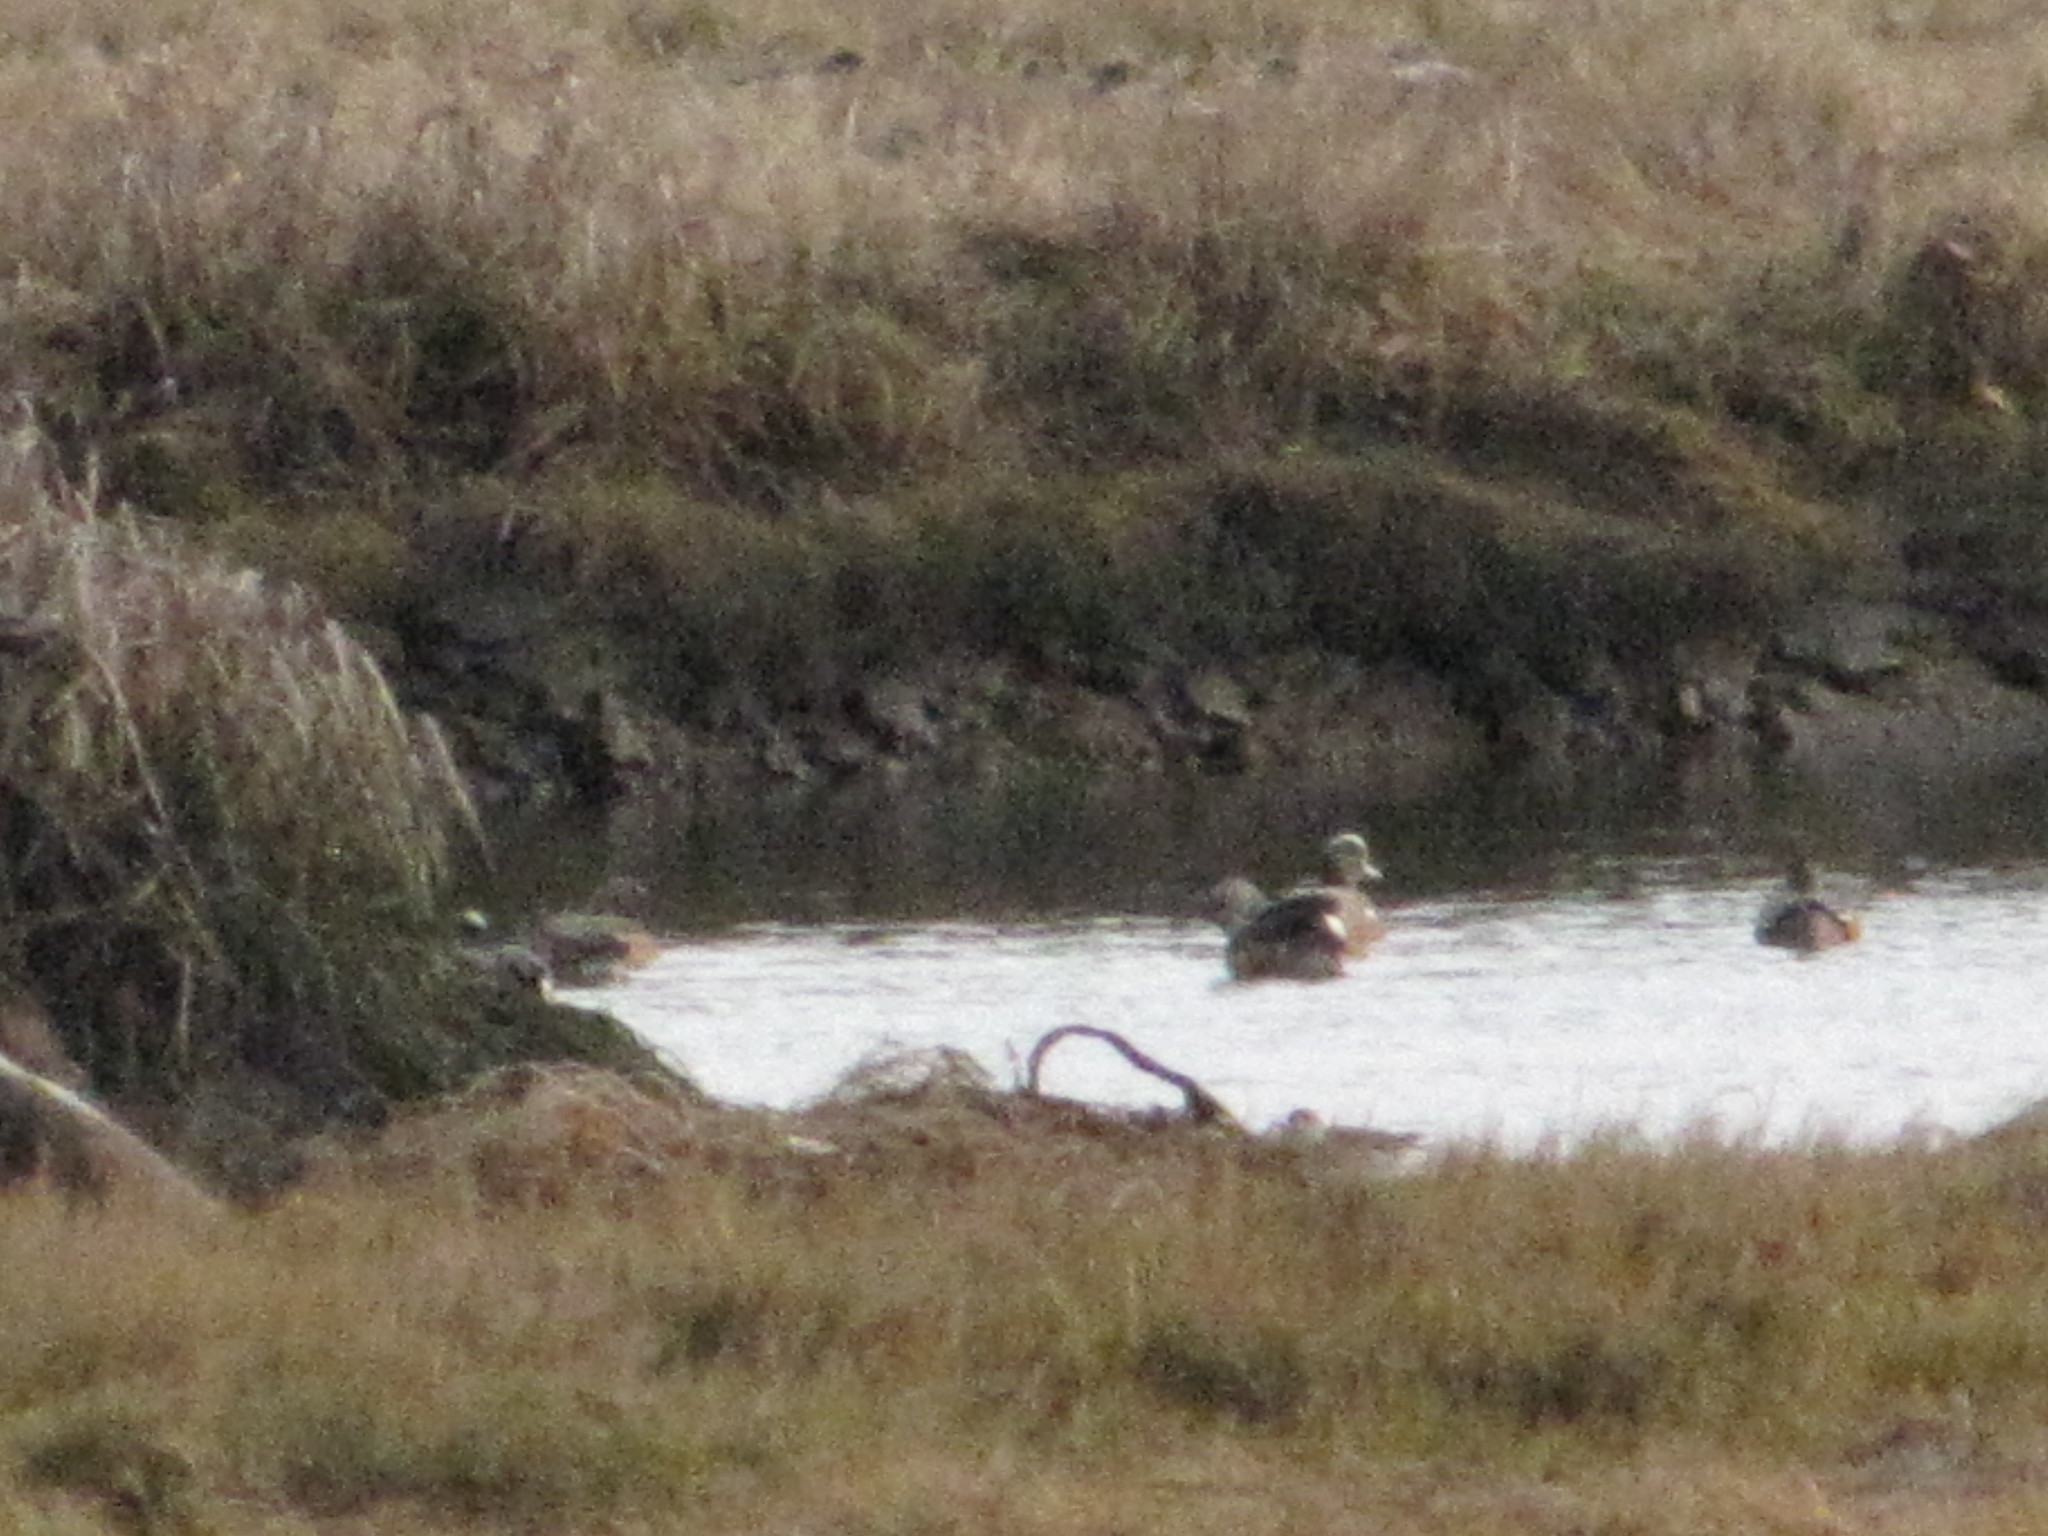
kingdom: Animalia
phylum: Chordata
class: Aves
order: Anseriformes
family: Anatidae
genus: Mareca
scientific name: Mareca americana
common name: American wigeon
